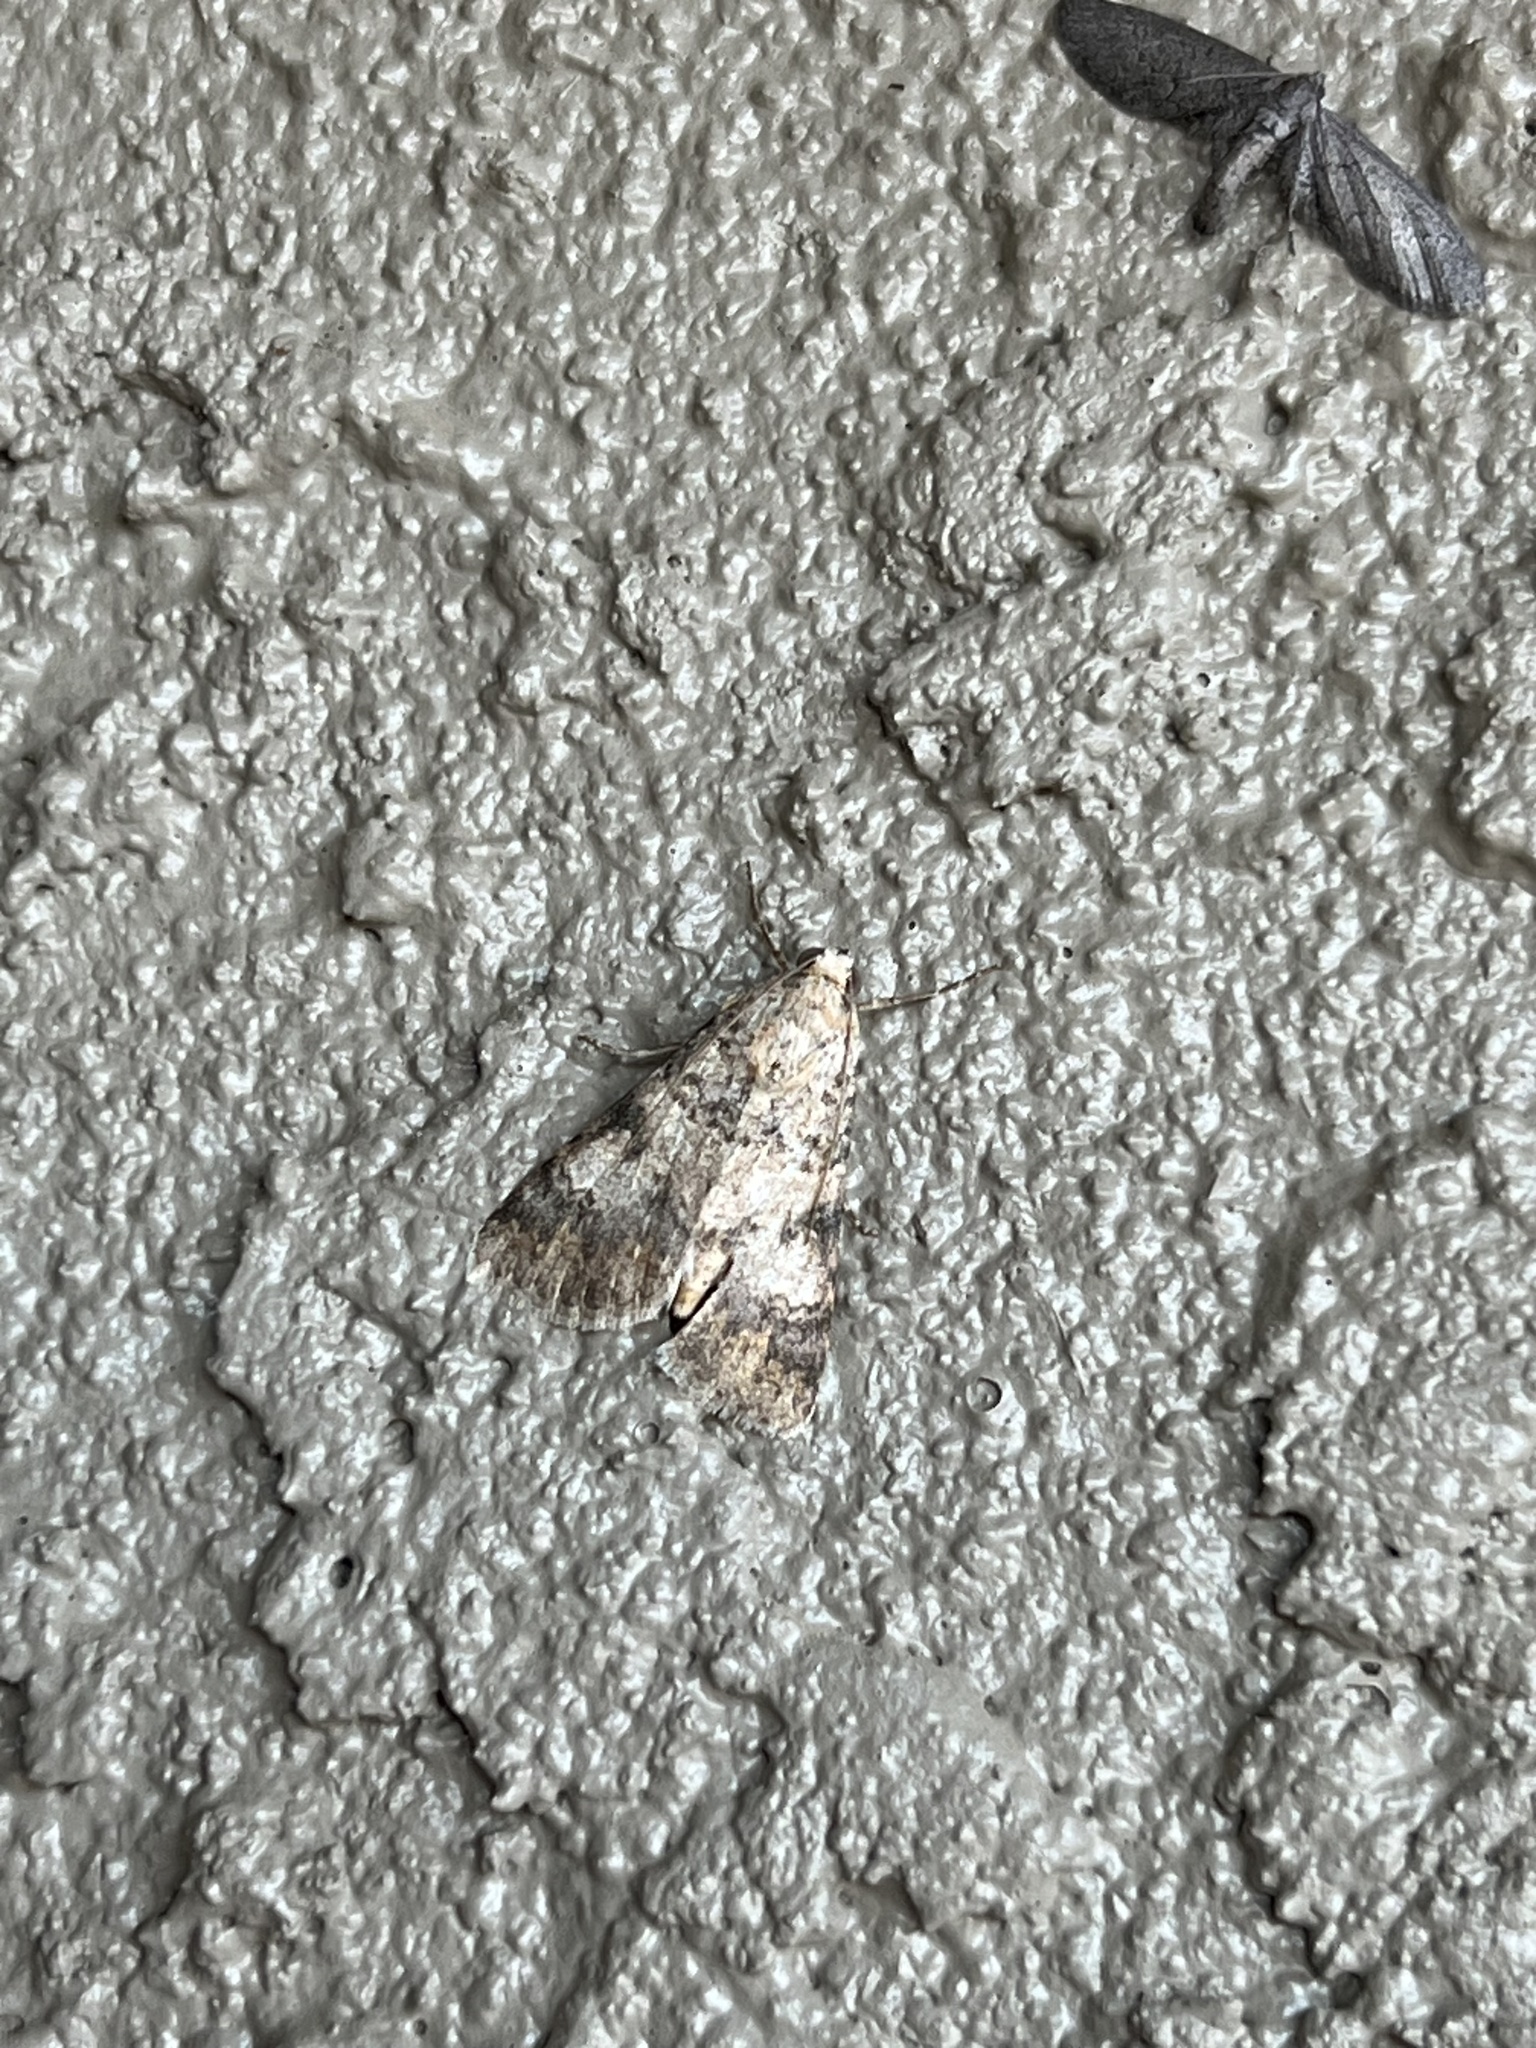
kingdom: Animalia
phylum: Arthropoda
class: Insecta
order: Lepidoptera
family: Erebidae
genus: Melipotis
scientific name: Melipotis jucunda
